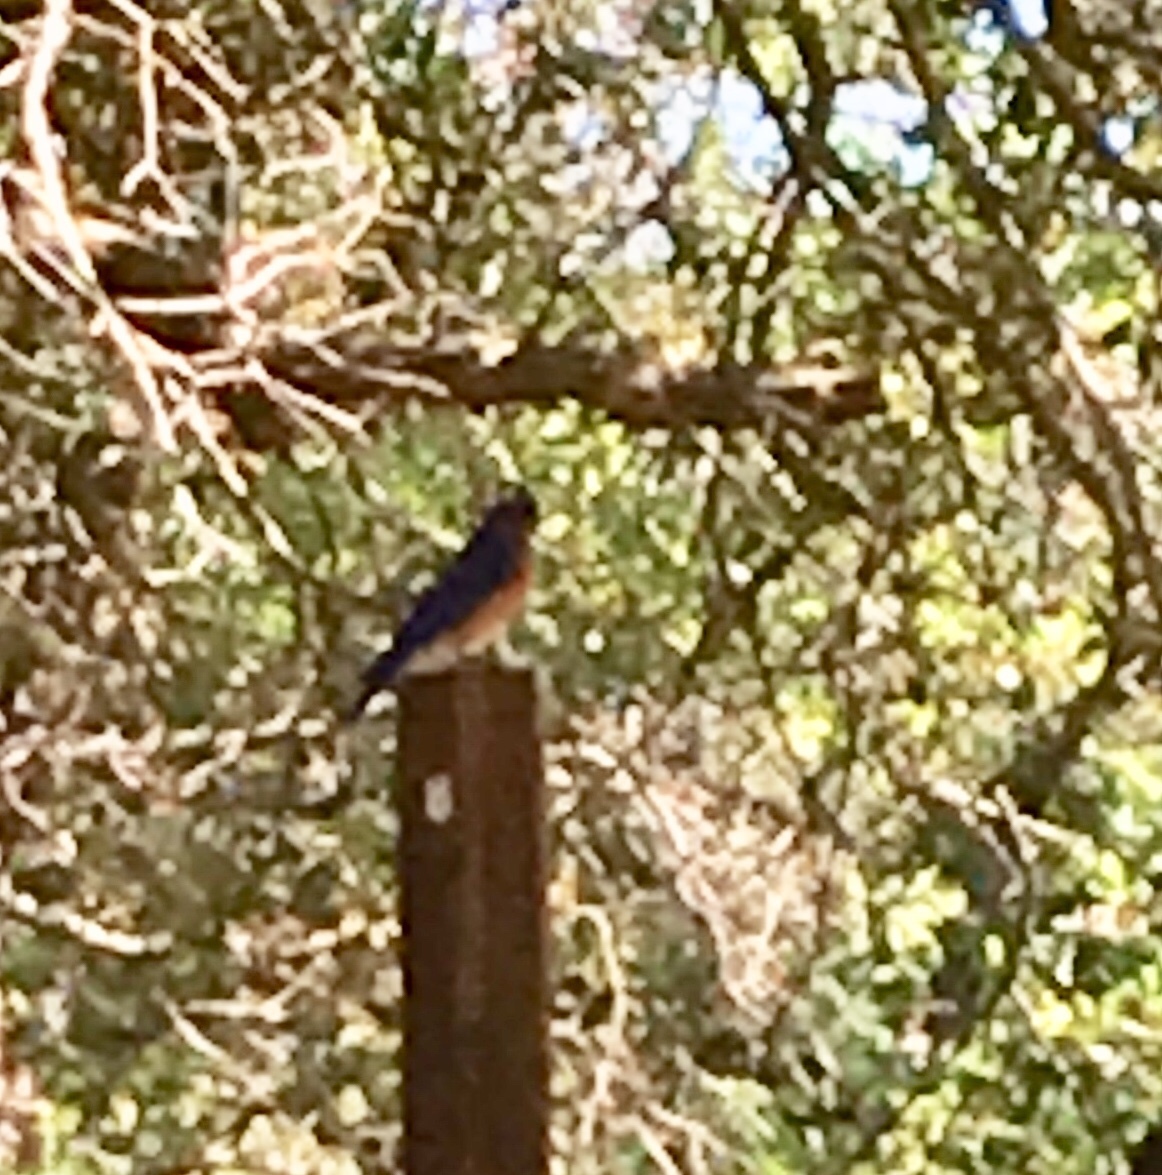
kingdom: Animalia
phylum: Chordata
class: Aves
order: Passeriformes
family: Turdidae
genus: Sialia
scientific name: Sialia mexicana
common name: Western bluebird
